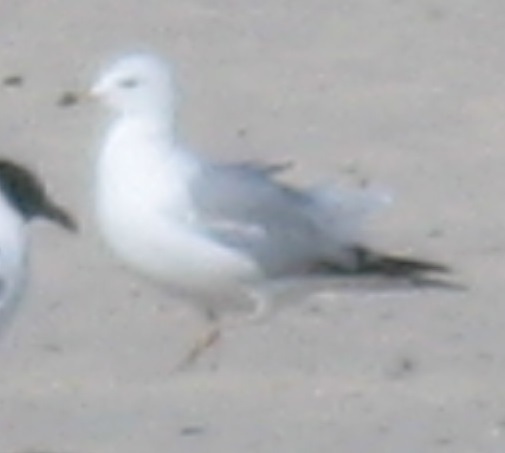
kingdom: Animalia
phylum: Chordata
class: Aves
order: Charadriiformes
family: Laridae
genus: Larus
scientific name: Larus delawarensis
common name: Ring-billed gull
